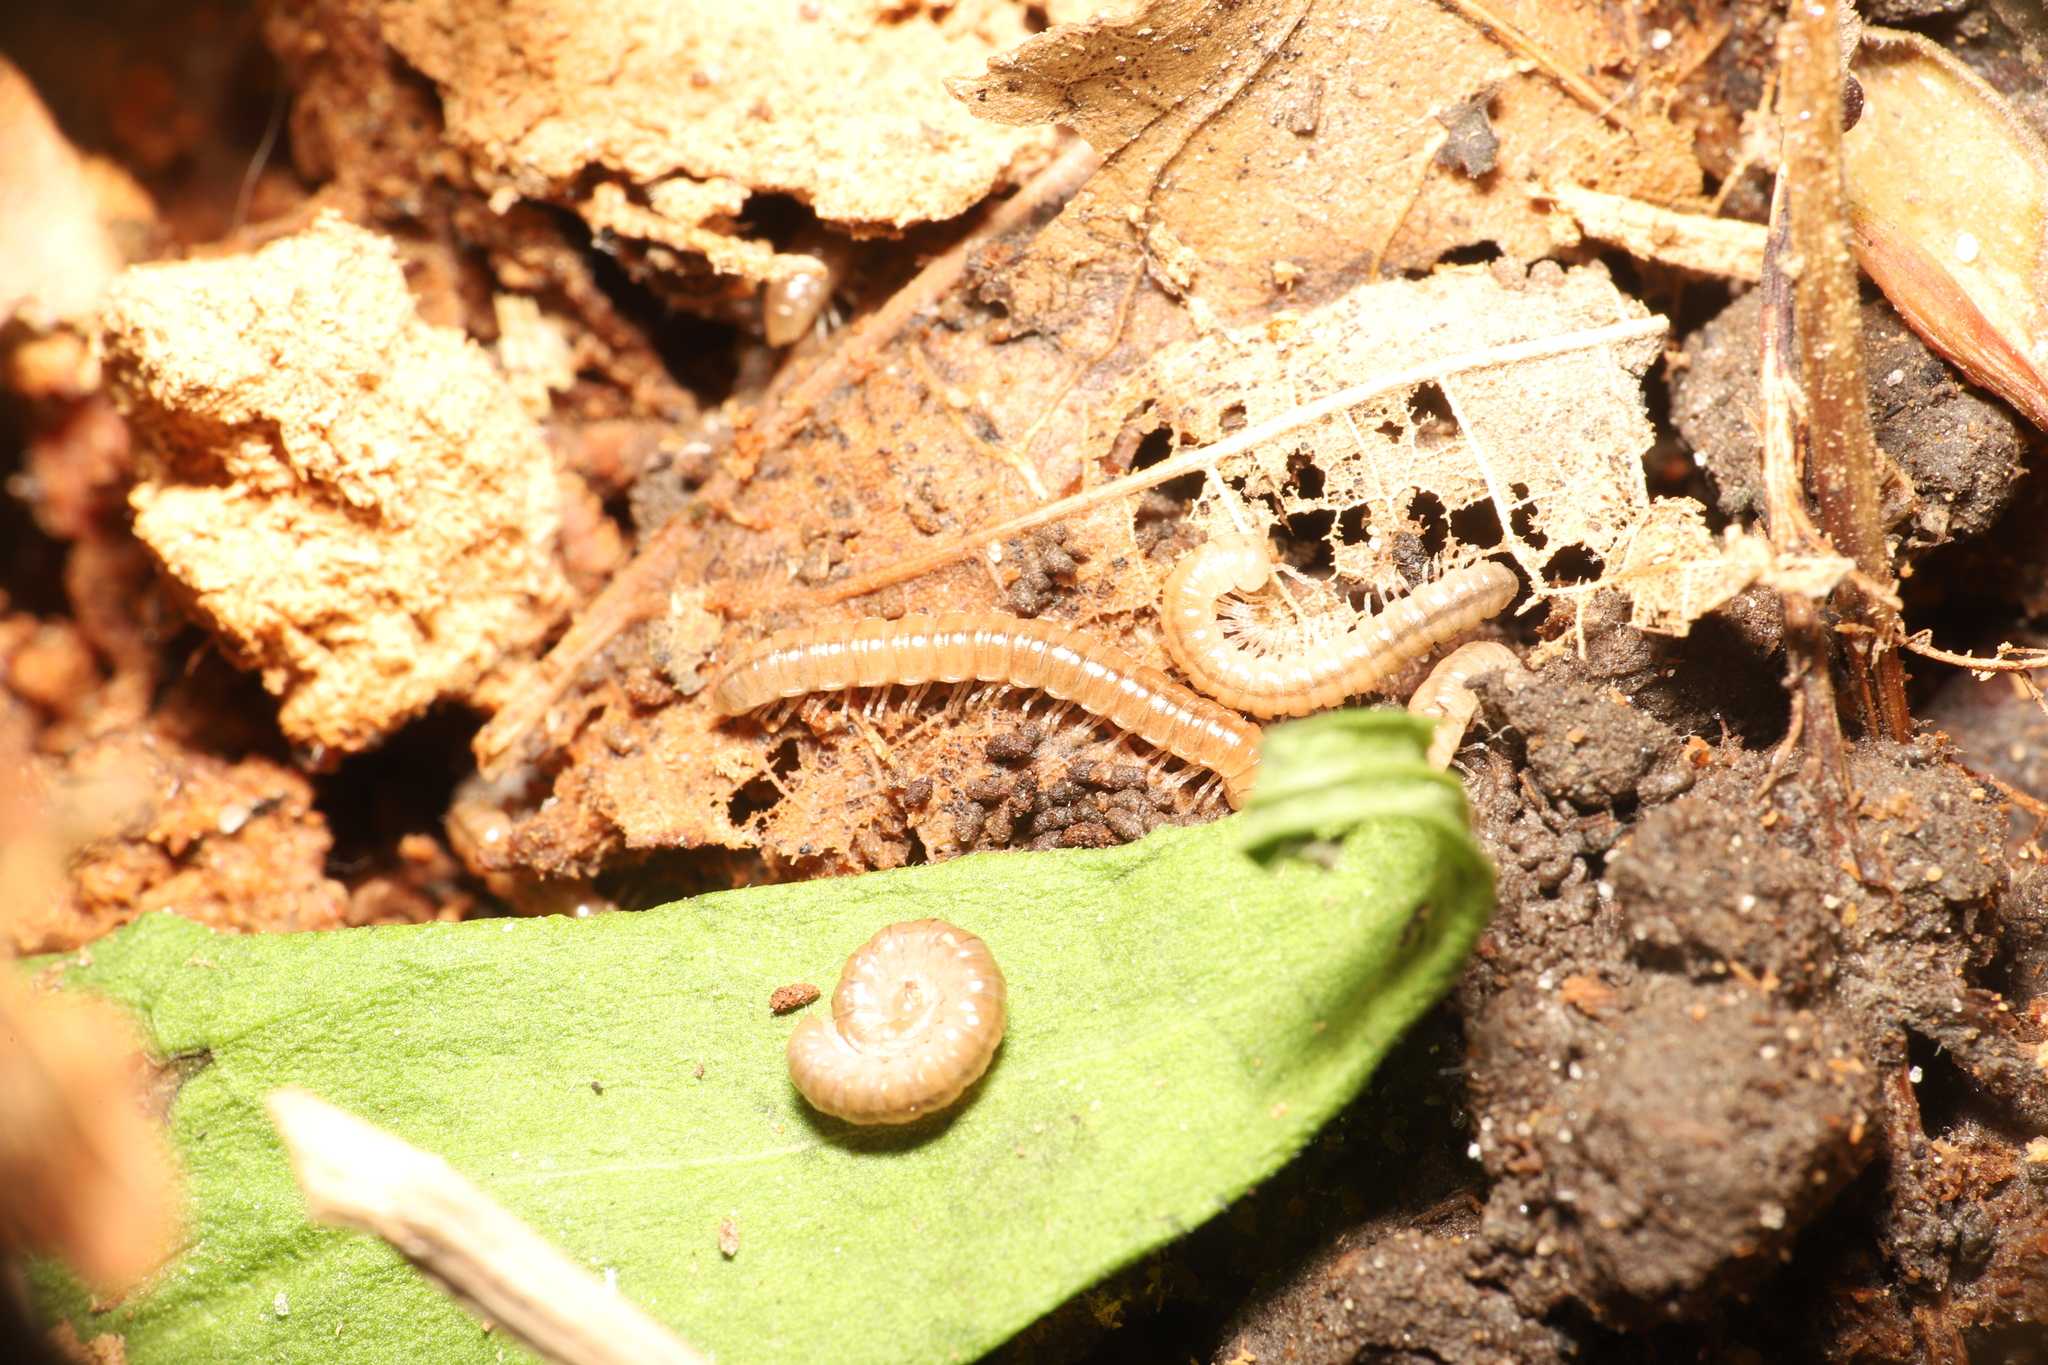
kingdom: Animalia
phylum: Arthropoda
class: Diplopoda
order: Polydesmida
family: Paradoxosomatidae
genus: Oxidus
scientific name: Oxidus gracilis
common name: Greenhouse millipede
